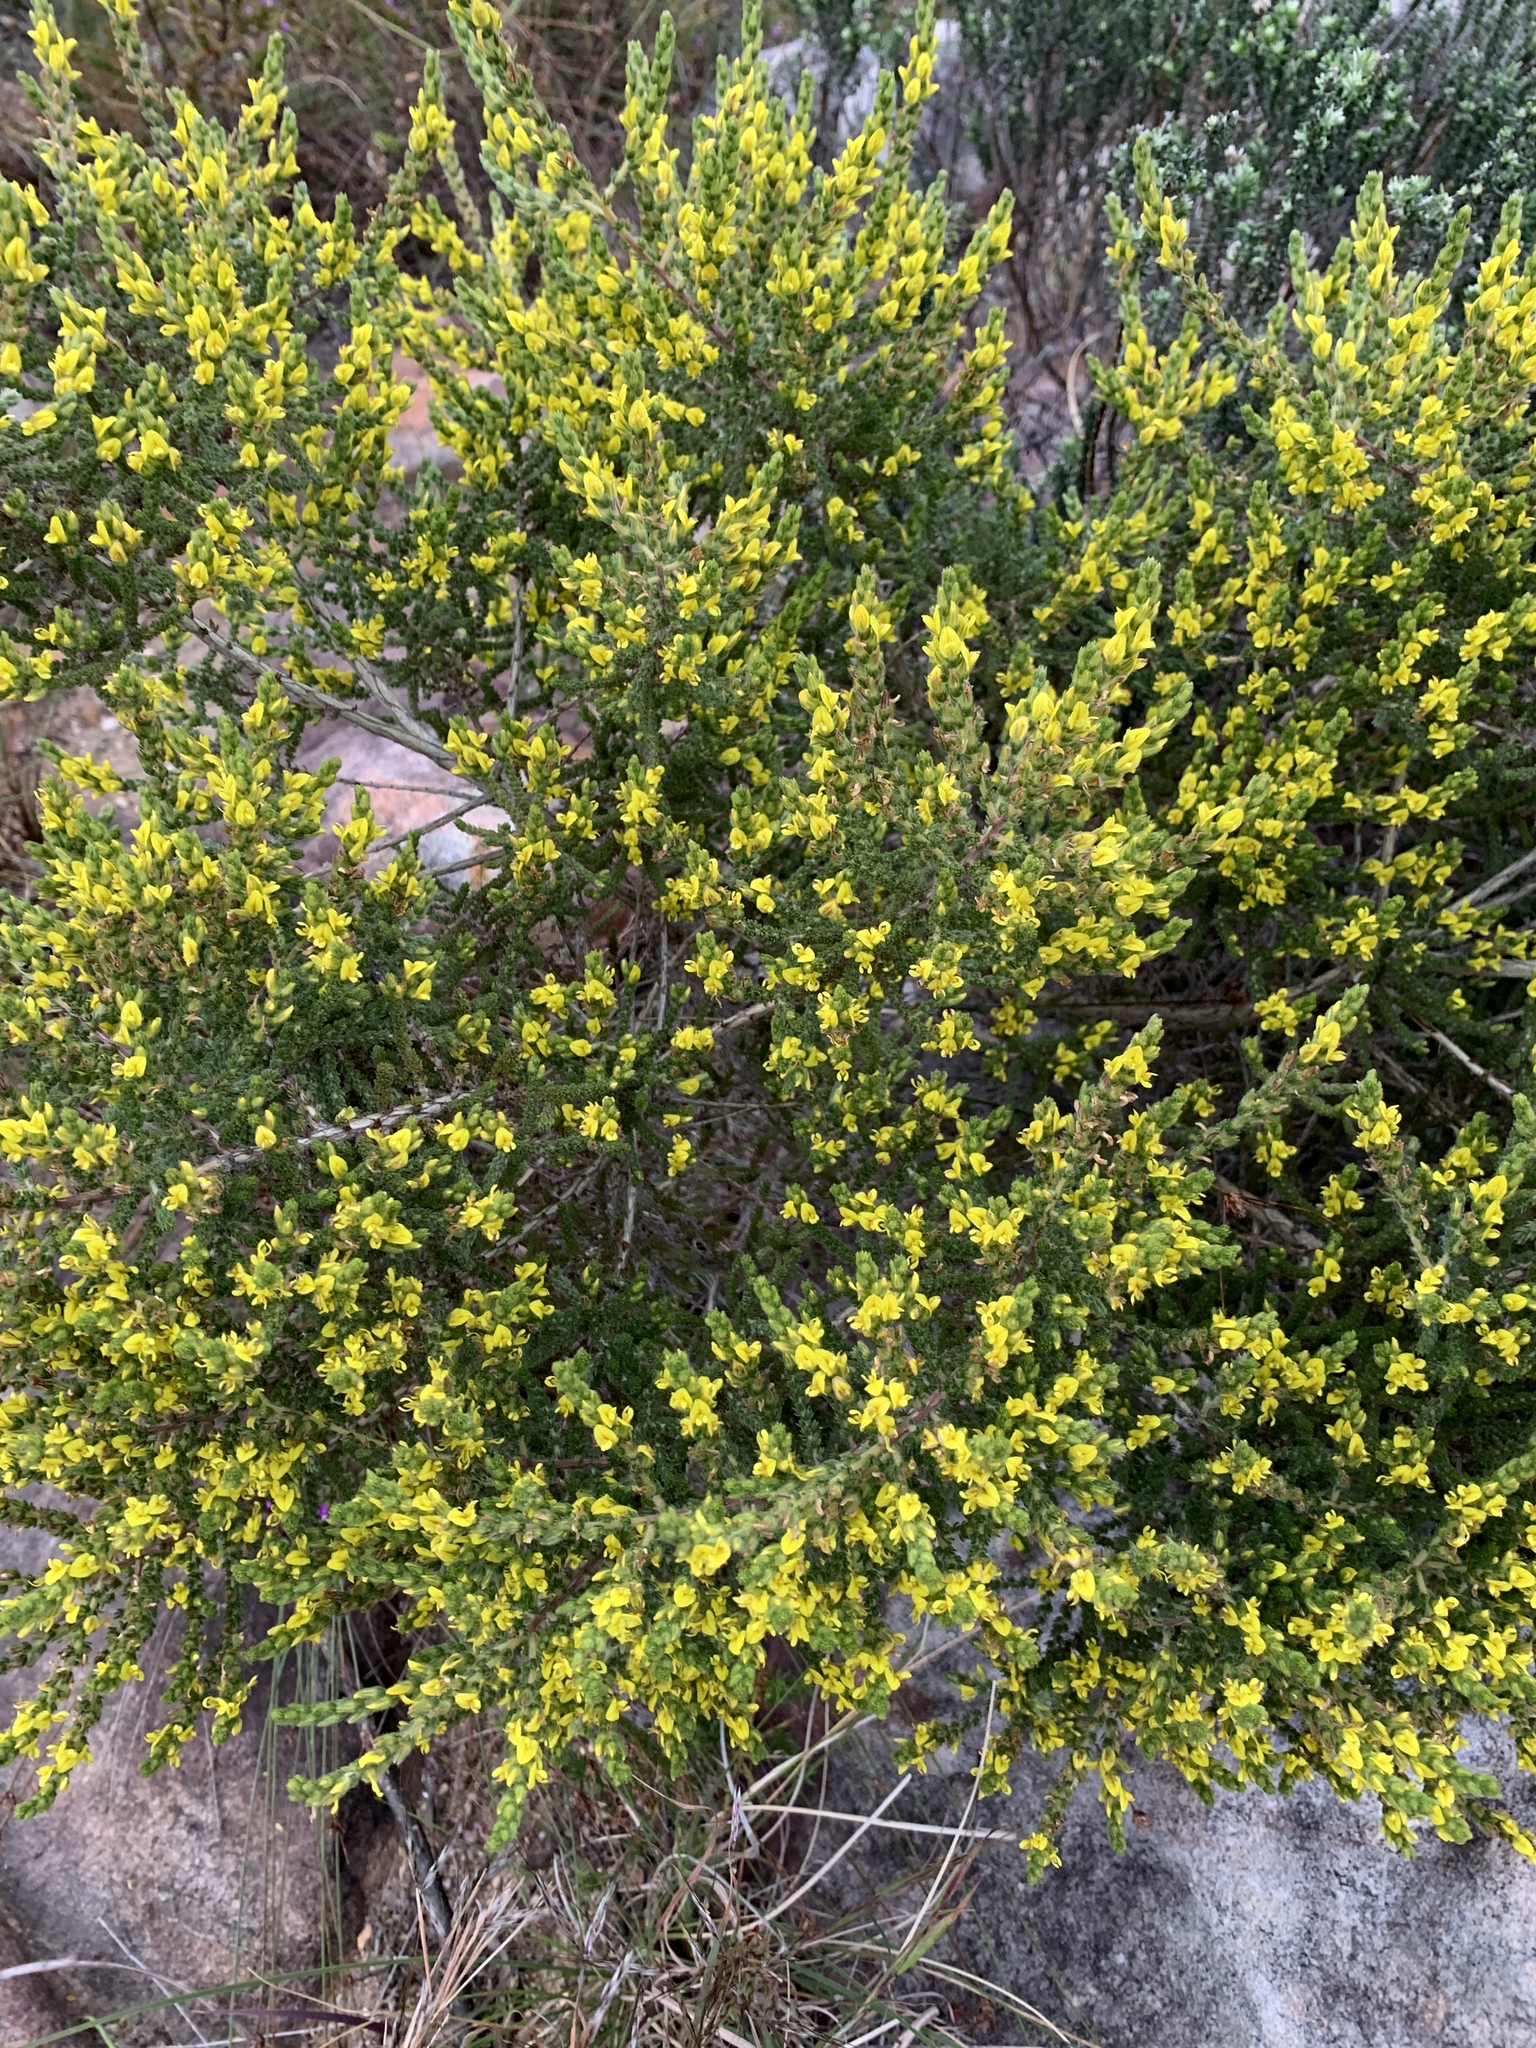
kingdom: Plantae
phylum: Tracheophyta
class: Magnoliopsida
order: Fabales
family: Fabaceae
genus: Aspalathus
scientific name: Aspalathus ericifolia
